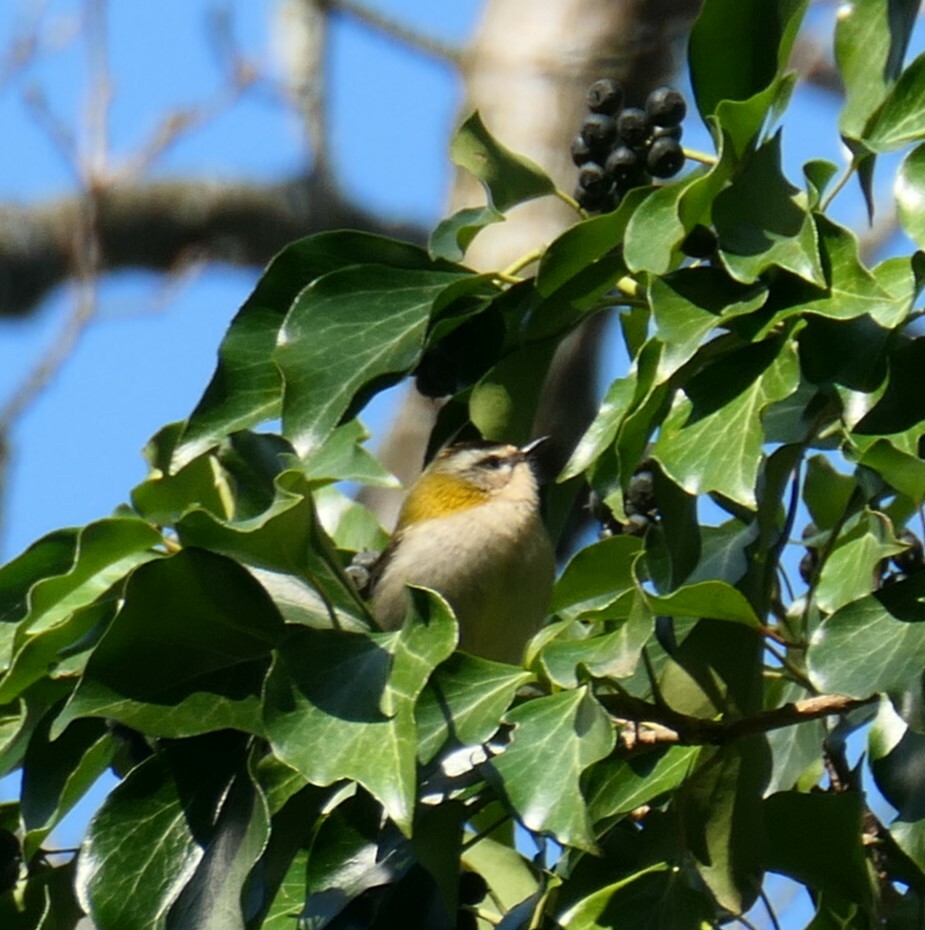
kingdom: Animalia
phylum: Chordata
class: Aves
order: Passeriformes
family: Regulidae
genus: Regulus
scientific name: Regulus ignicapilla
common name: Firecrest
